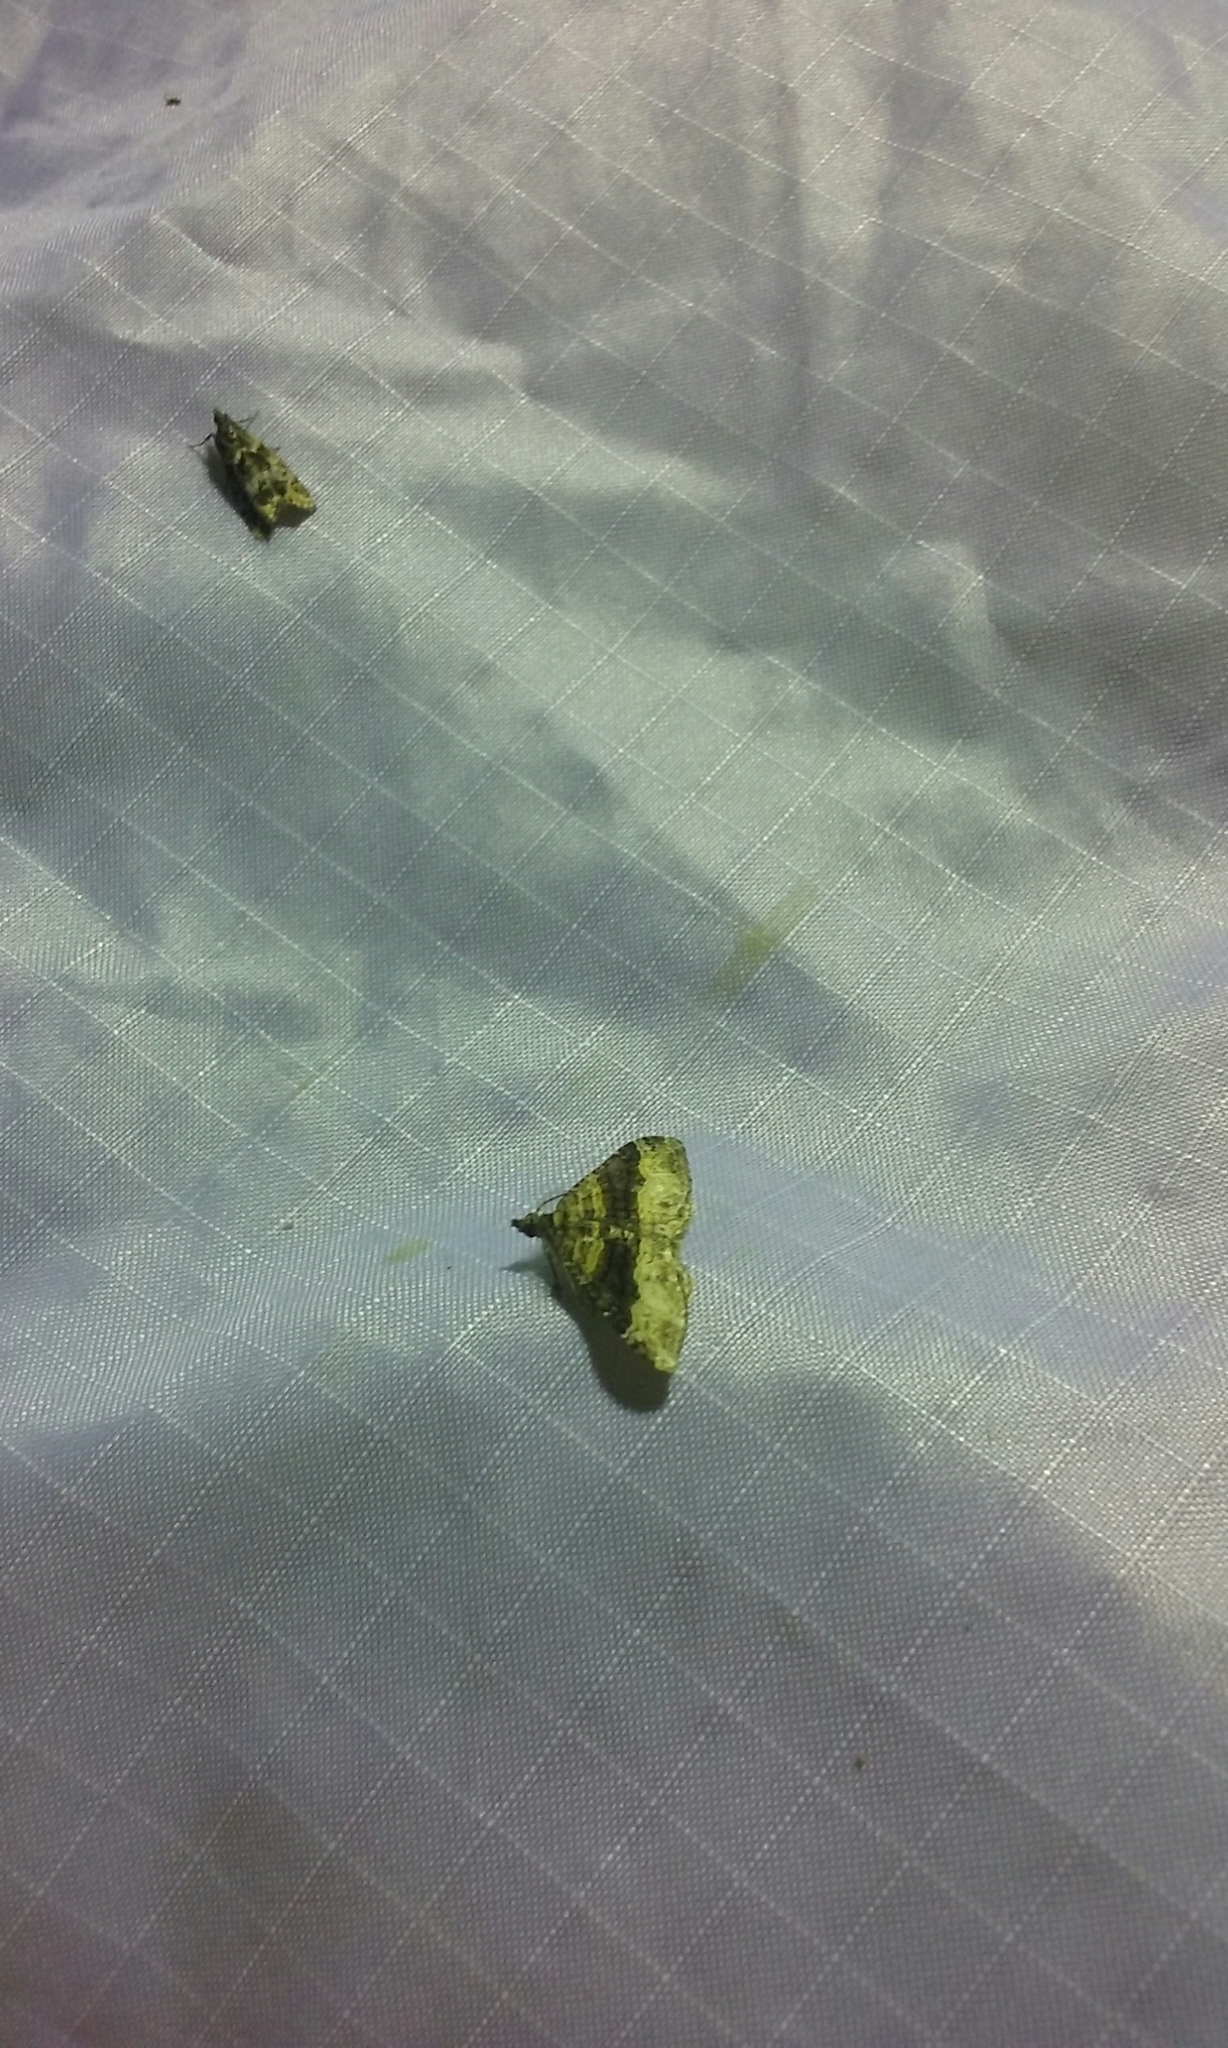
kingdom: Animalia
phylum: Arthropoda
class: Insecta
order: Lepidoptera
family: Geometridae
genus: Epyaxa
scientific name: Epyaxa lucidata
